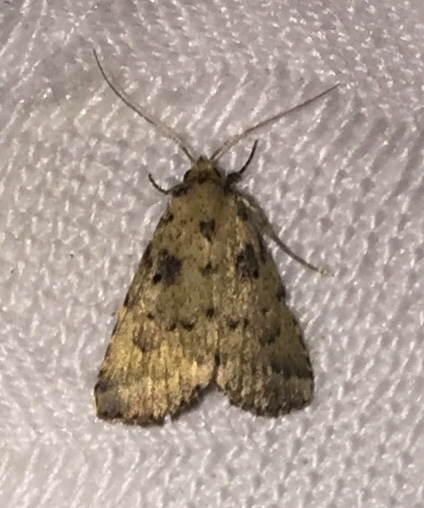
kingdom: Animalia
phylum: Arthropoda
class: Insecta
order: Lepidoptera
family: Erebidae
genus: Arugisa
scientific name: Arugisa lutea
